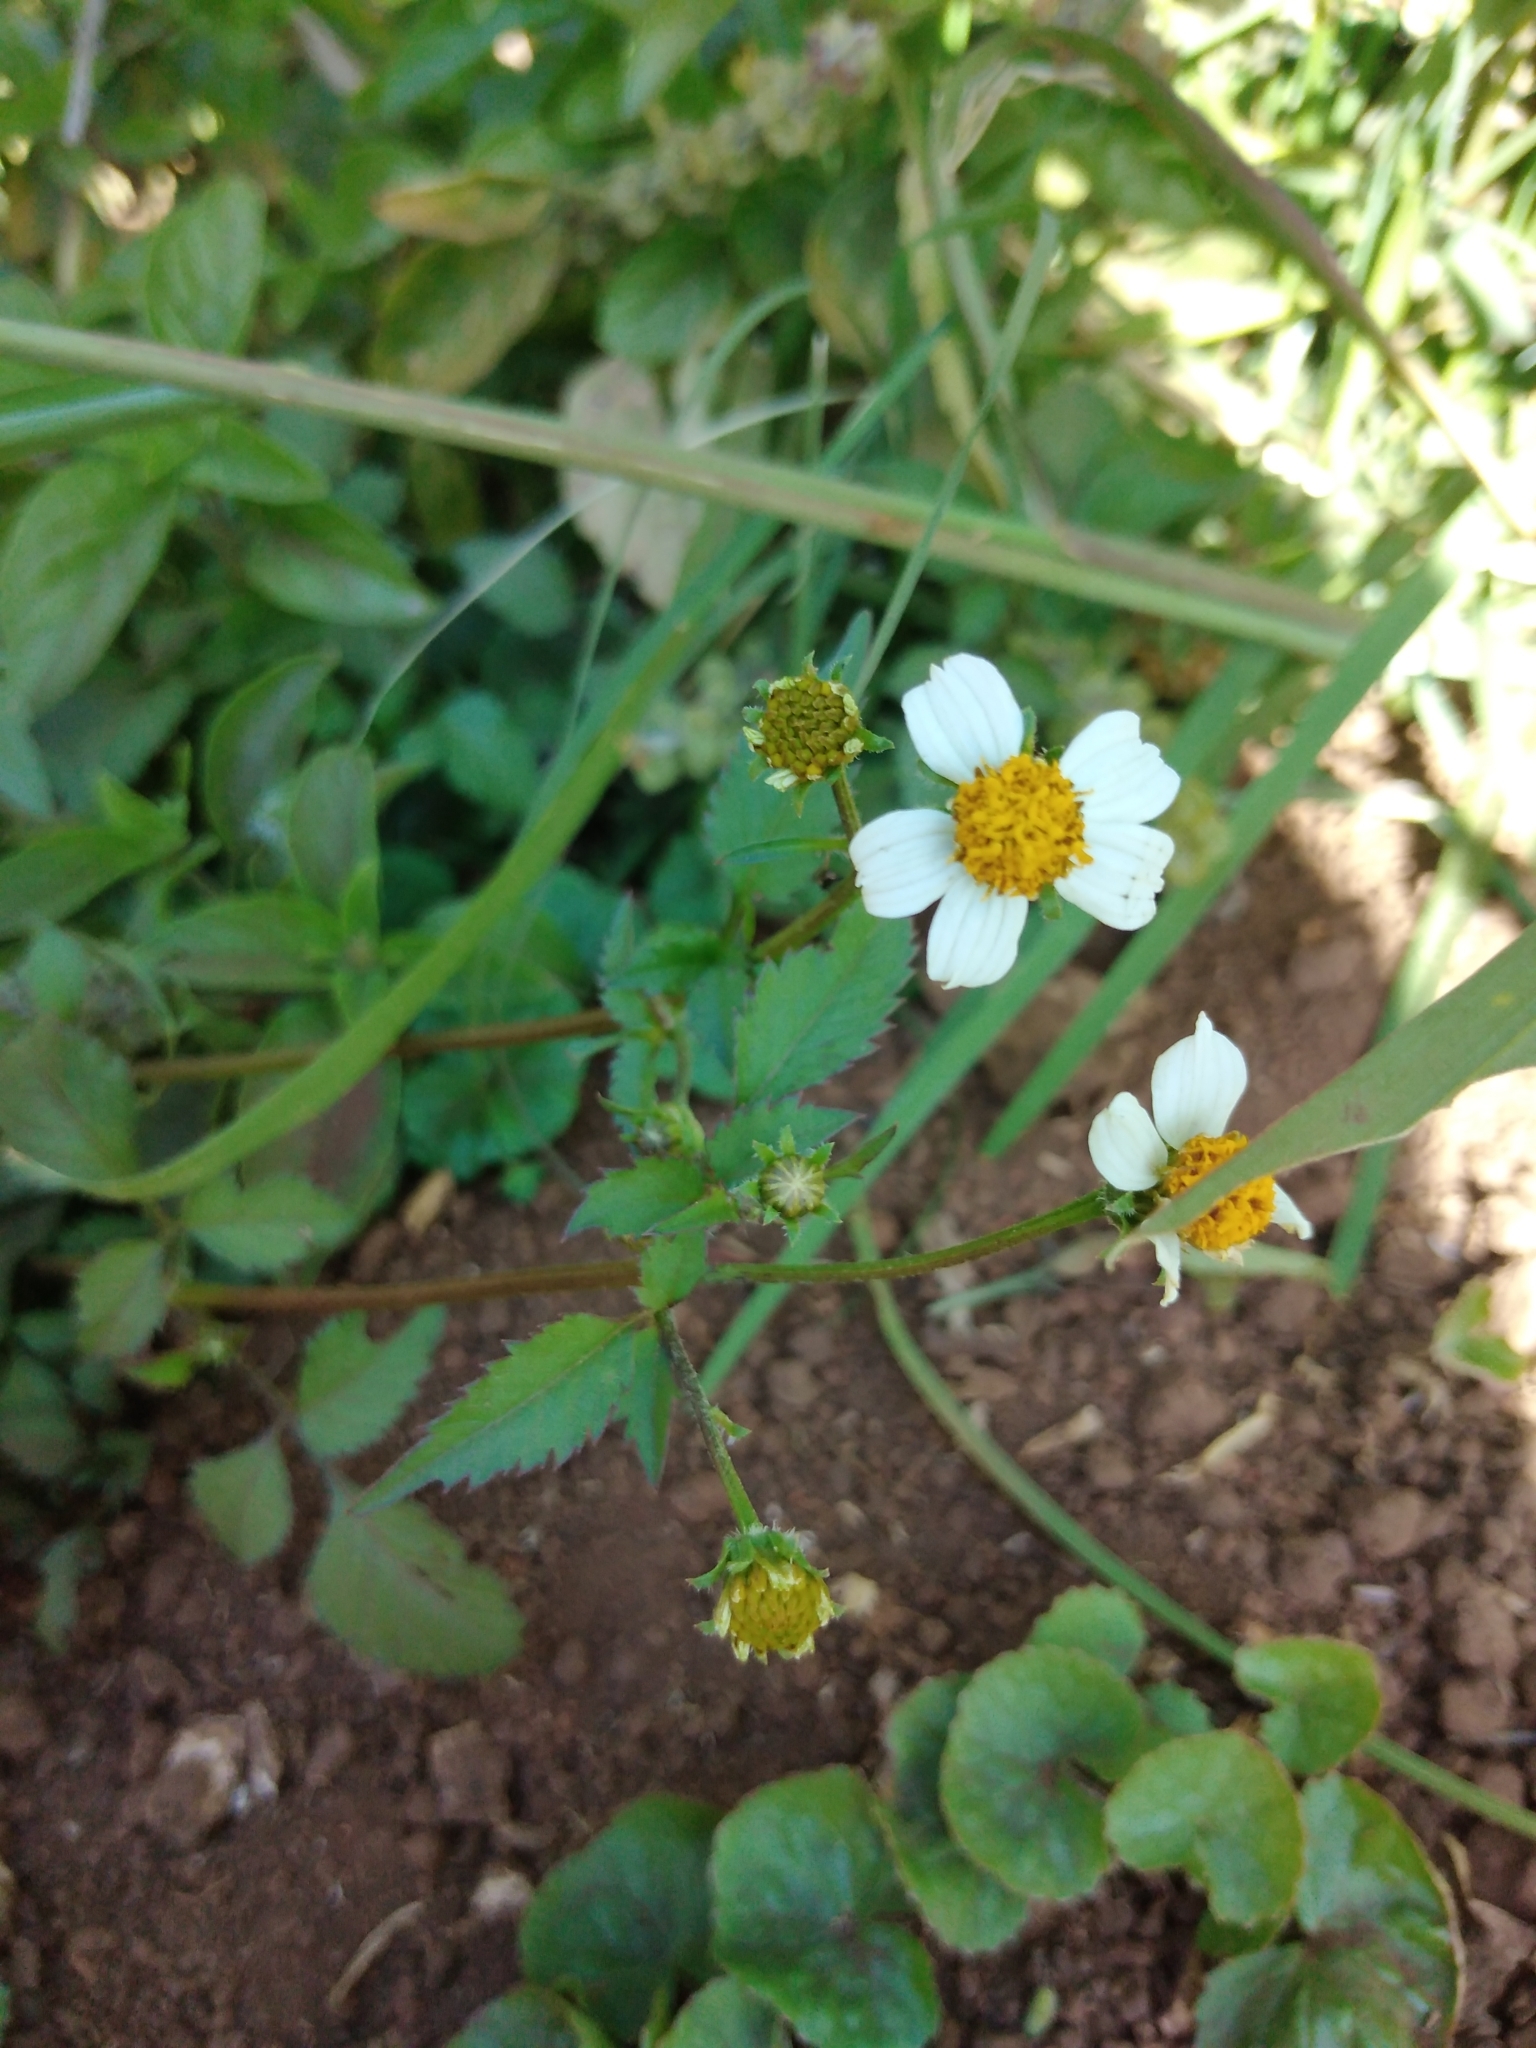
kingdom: Plantae
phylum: Tracheophyta
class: Magnoliopsida
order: Asterales
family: Asteraceae
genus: Bidens
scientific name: Bidens pilosa
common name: Black-jack
